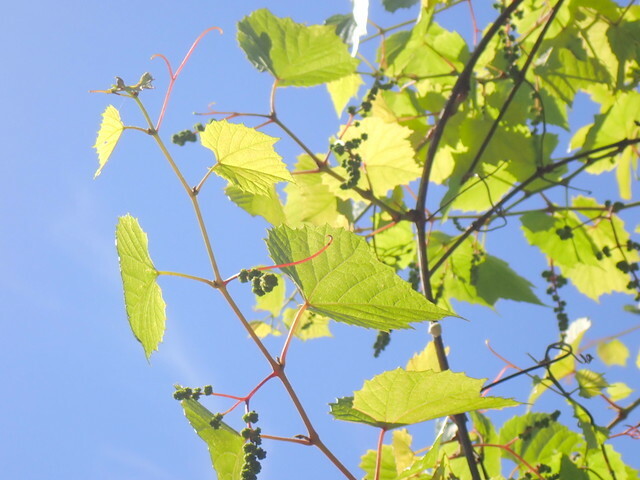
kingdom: Plantae
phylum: Tracheophyta
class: Magnoliopsida
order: Vitales
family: Vitaceae
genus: Vitis
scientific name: Vitis vulpina
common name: Frost grape
